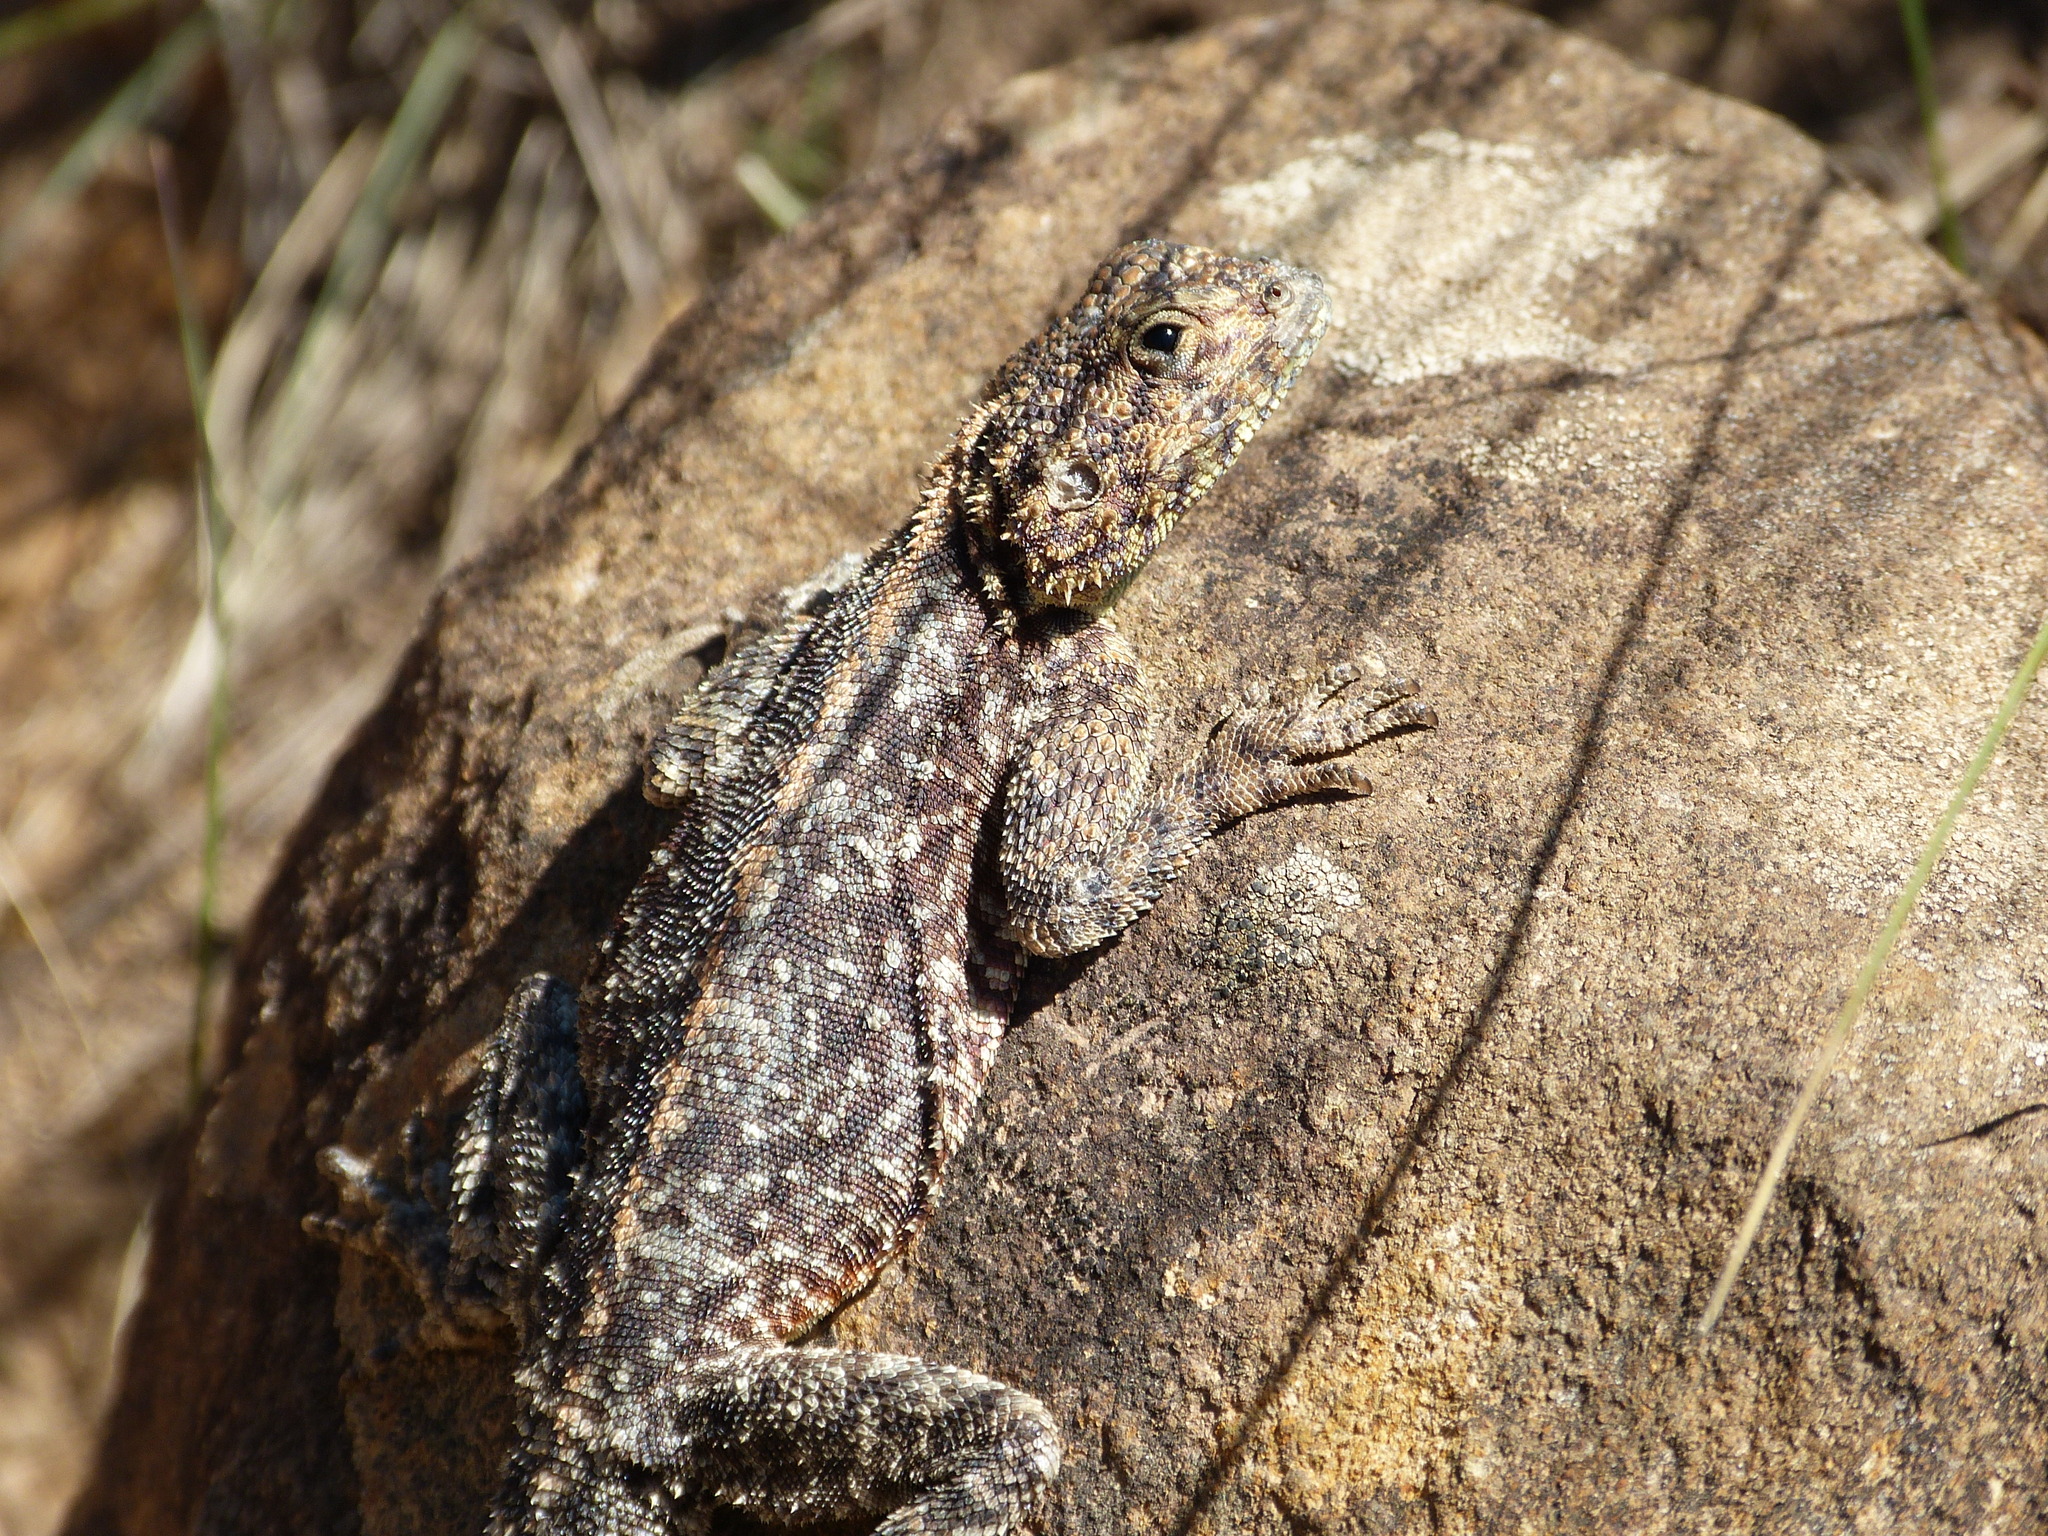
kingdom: Animalia
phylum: Chordata
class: Squamata
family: Agamidae
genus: Agama
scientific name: Agama atra
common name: Southern african rock agama
